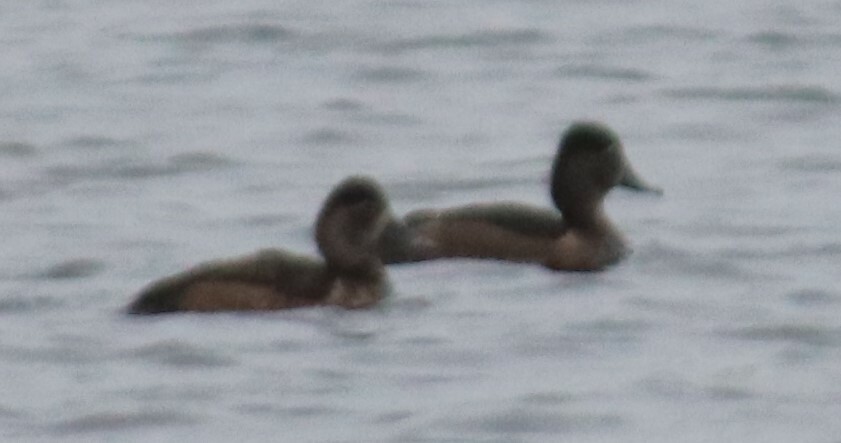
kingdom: Animalia
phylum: Chordata
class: Aves
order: Anseriformes
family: Anatidae
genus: Aythya
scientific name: Aythya collaris
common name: Ring-necked duck
